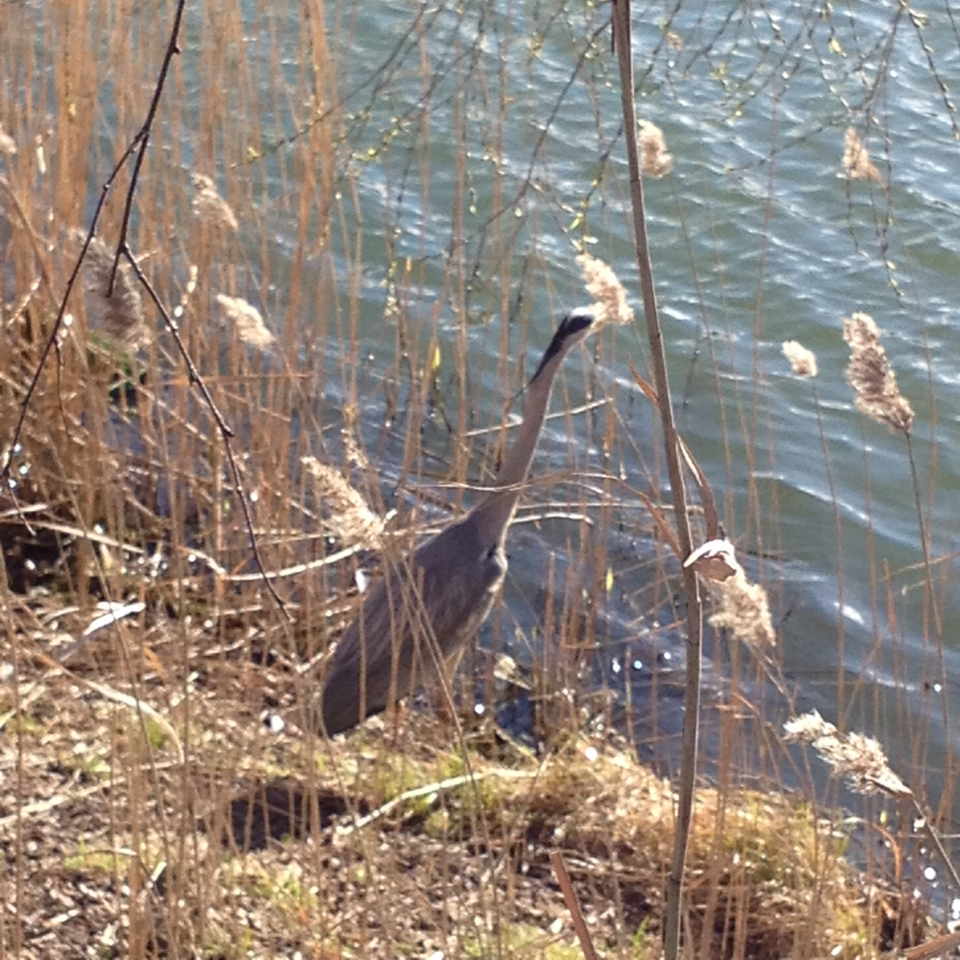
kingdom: Animalia
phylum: Chordata
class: Aves
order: Pelecaniformes
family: Ardeidae
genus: Ardea
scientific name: Ardea cinerea
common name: Grey heron
